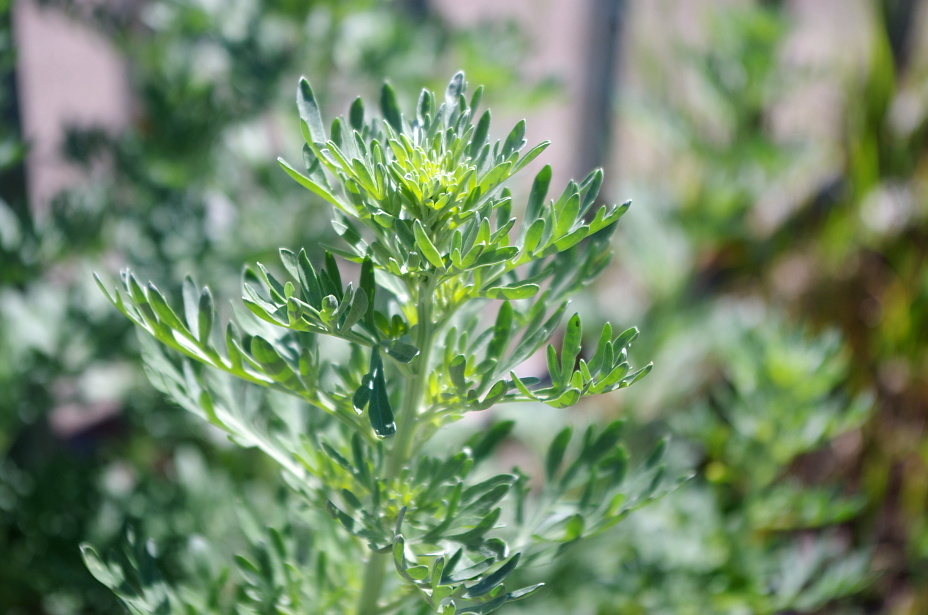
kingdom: Plantae
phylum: Tracheophyta
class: Magnoliopsida
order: Asterales
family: Asteraceae
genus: Artemisia
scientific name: Artemisia absinthium
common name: Wormwood
